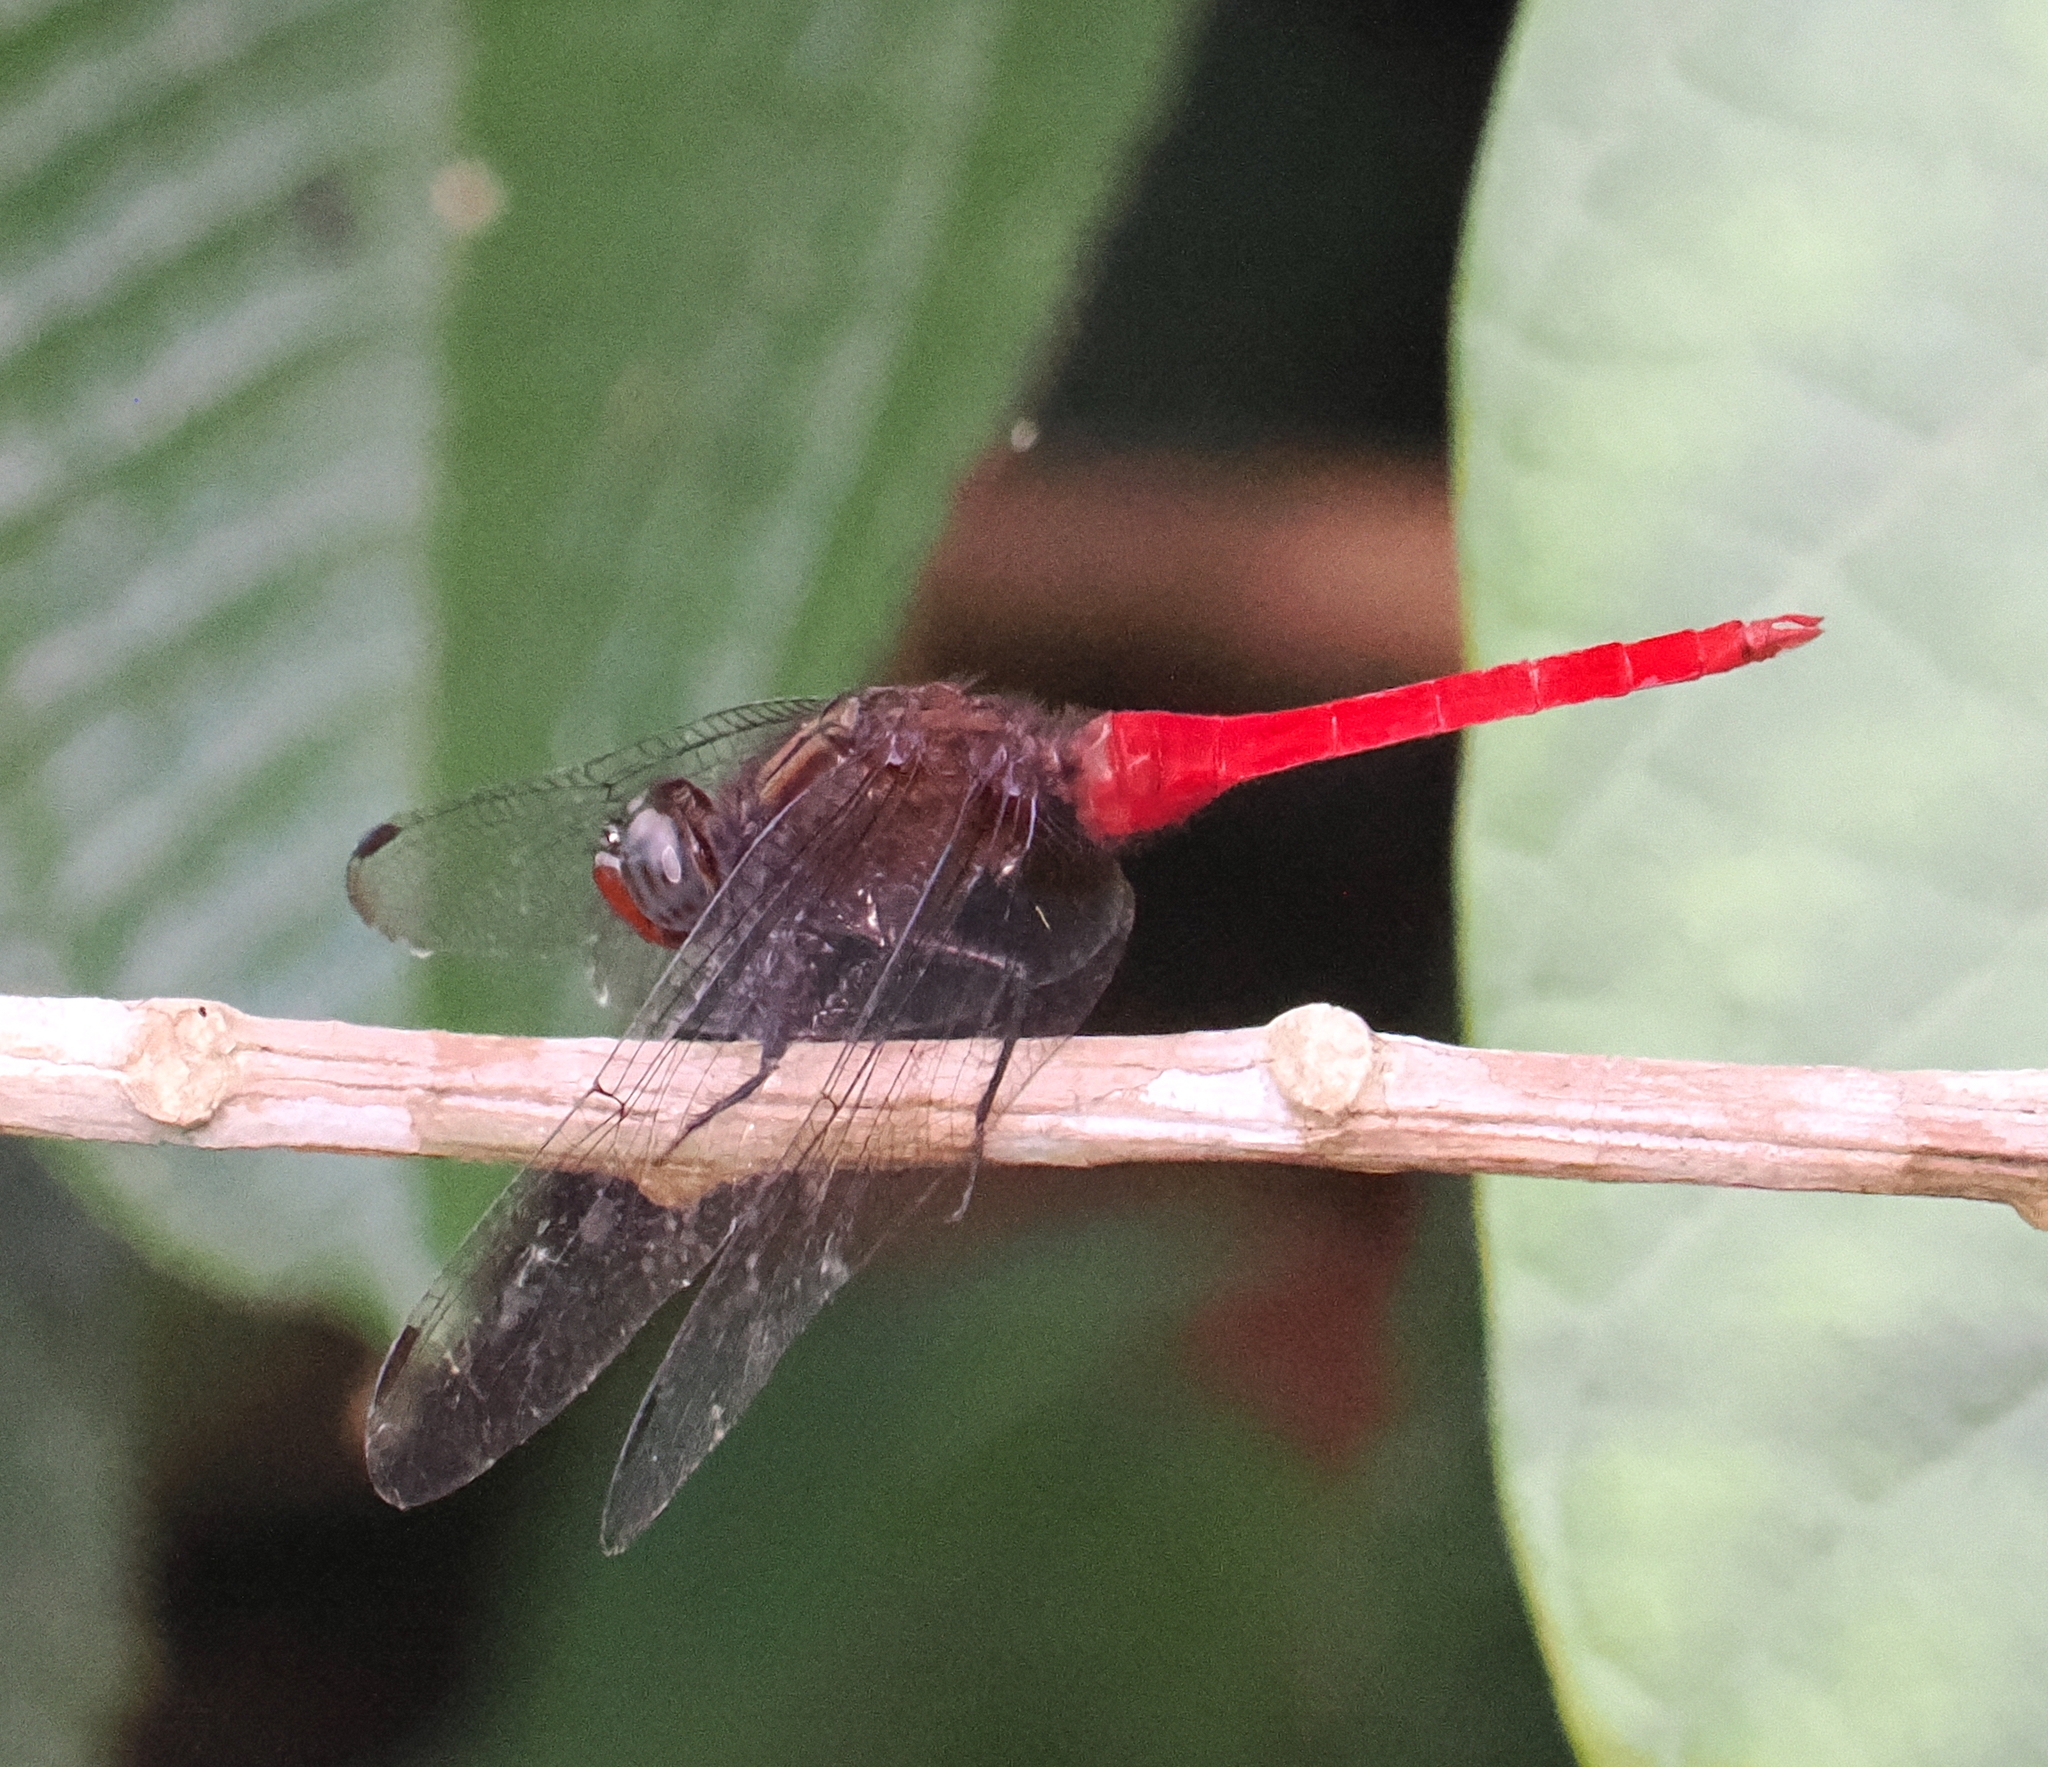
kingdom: Animalia
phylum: Arthropoda
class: Insecta
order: Odonata
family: Libellulidae
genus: Orthetrum
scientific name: Orthetrum chrysis
